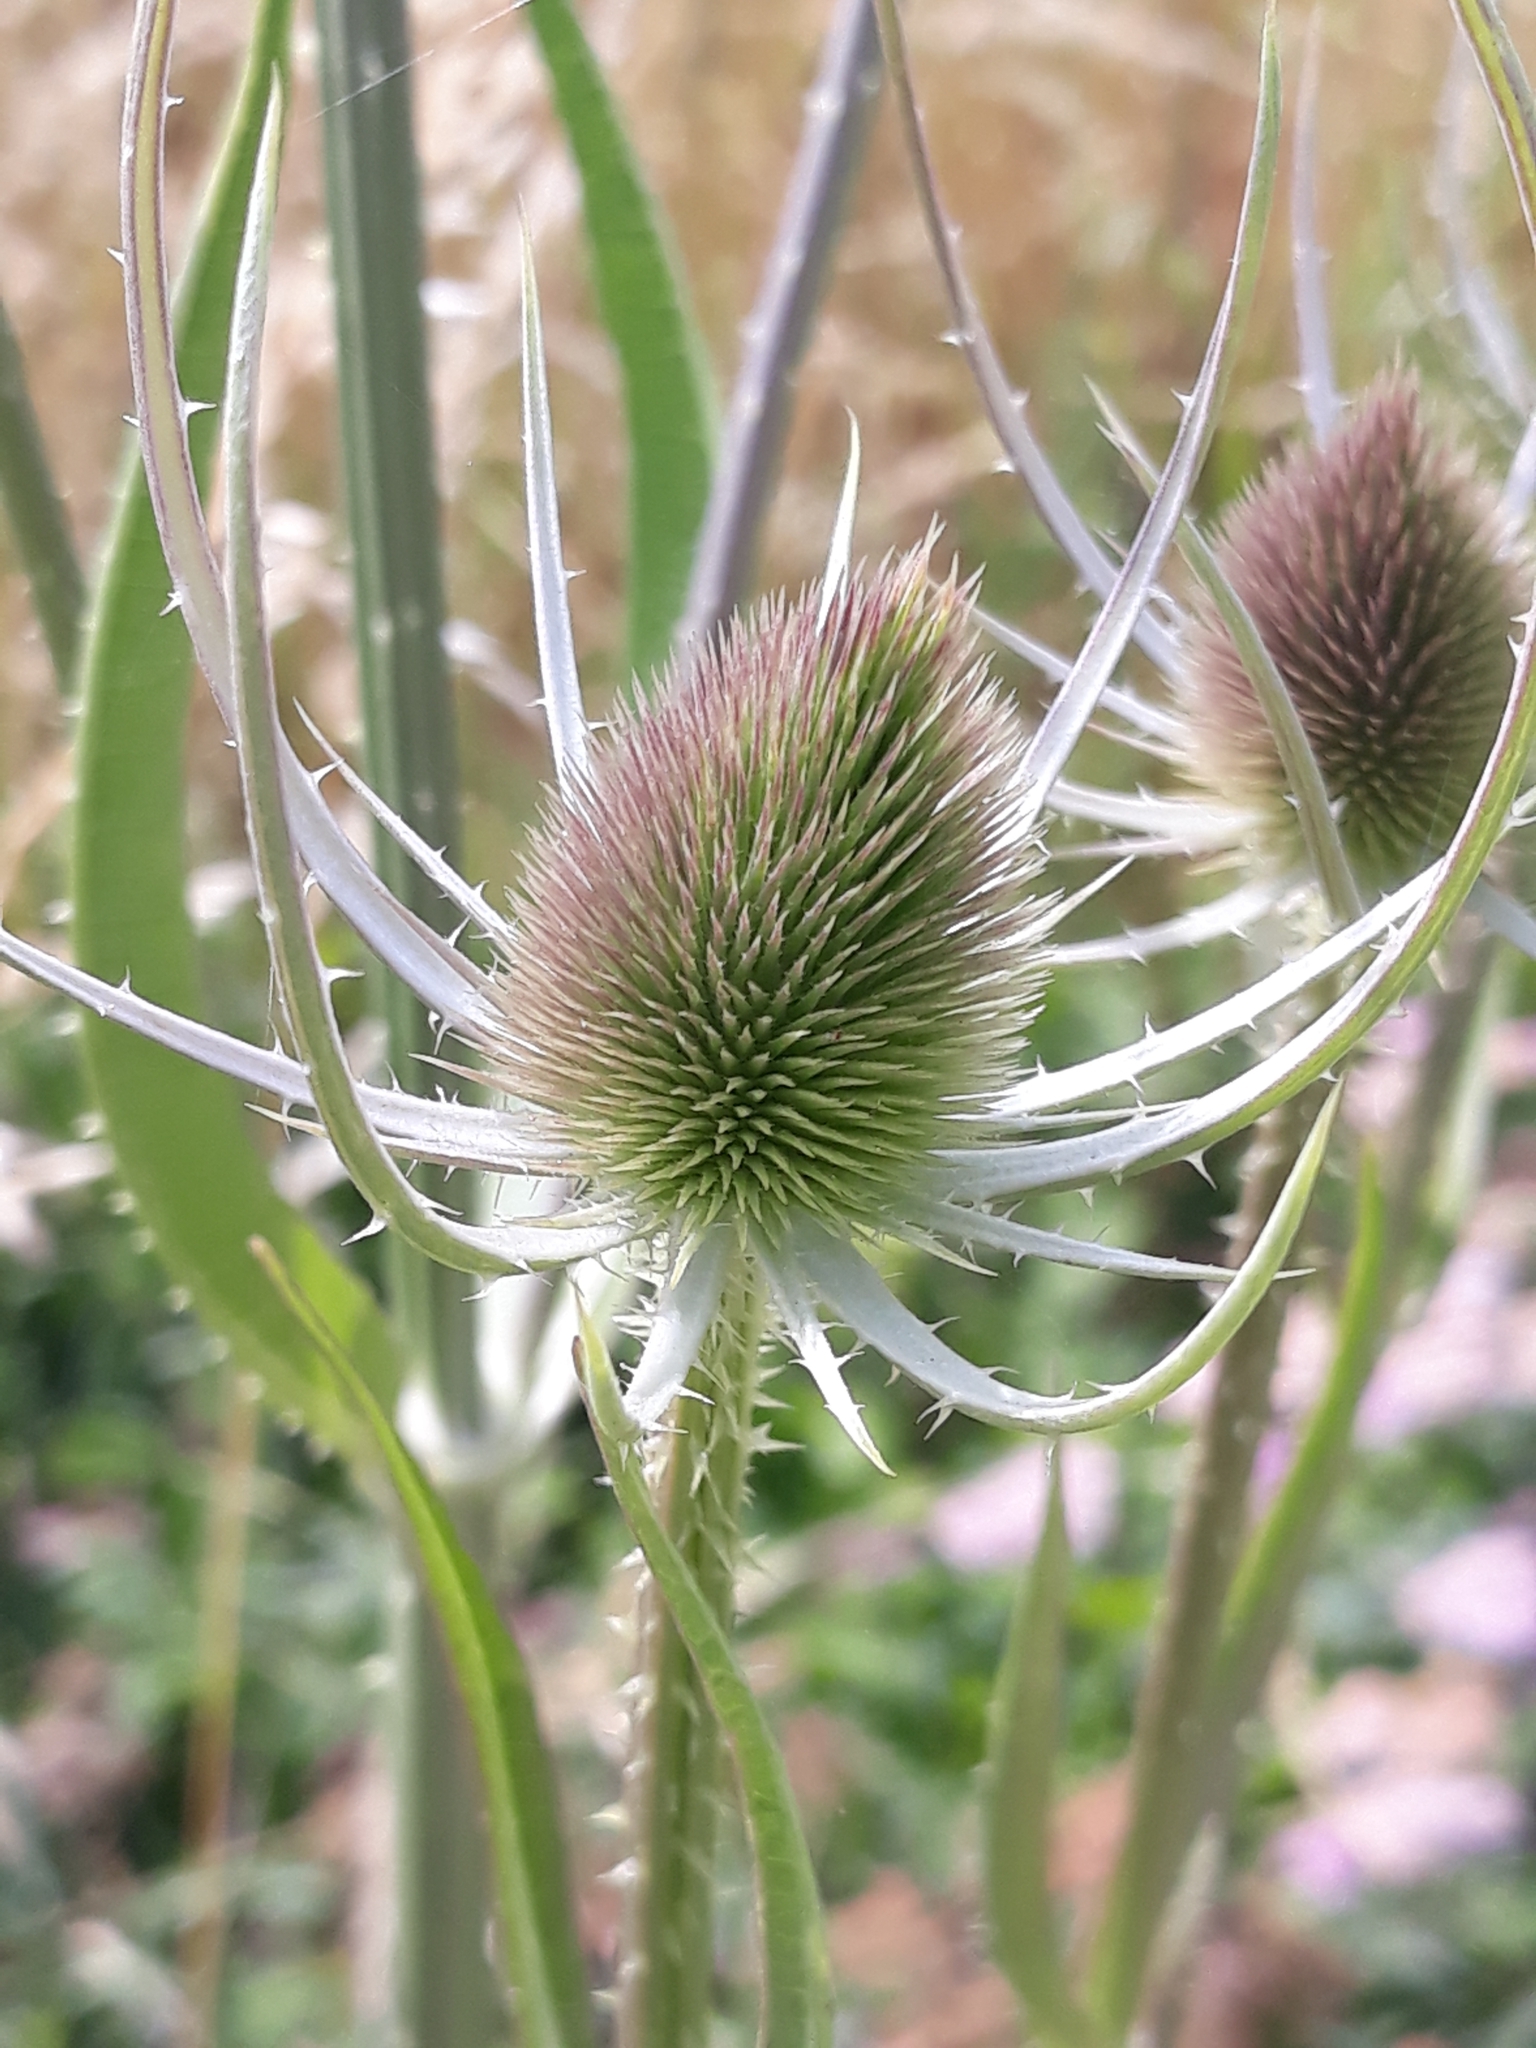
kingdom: Plantae
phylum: Tracheophyta
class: Magnoliopsida
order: Dipsacales
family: Caprifoliaceae
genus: Dipsacus
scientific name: Dipsacus fullonum
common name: Teasel
